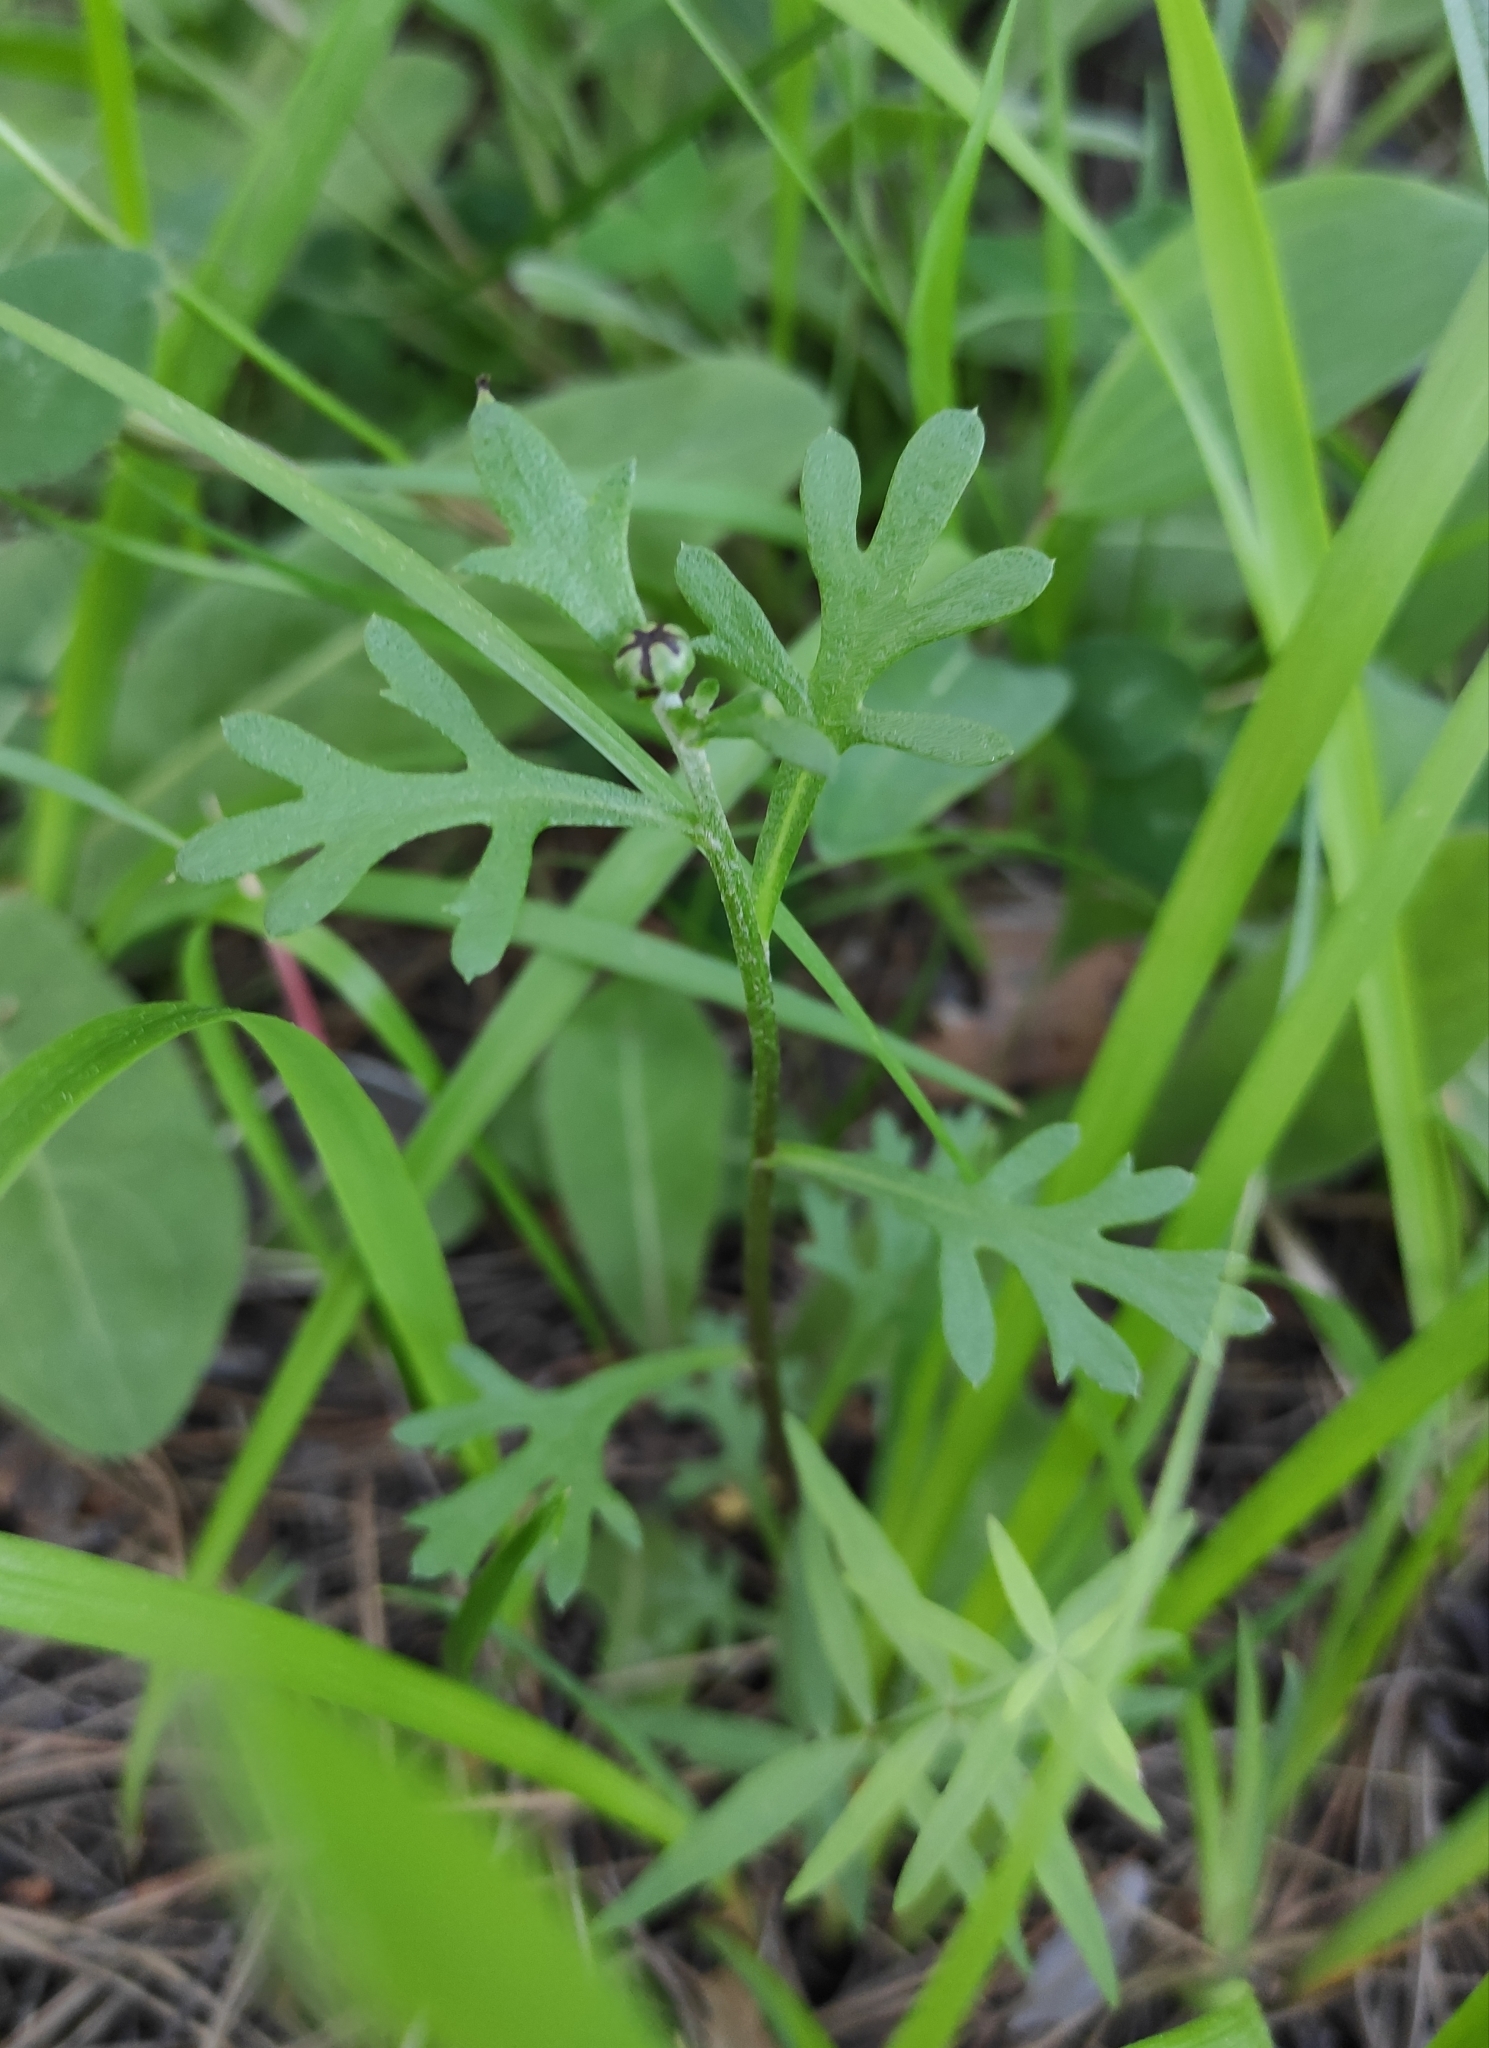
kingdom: Plantae
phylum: Tracheophyta
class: Magnoliopsida
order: Asterales
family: Asteraceae
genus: Chrysanthemum
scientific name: Chrysanthemum zawadzkii
